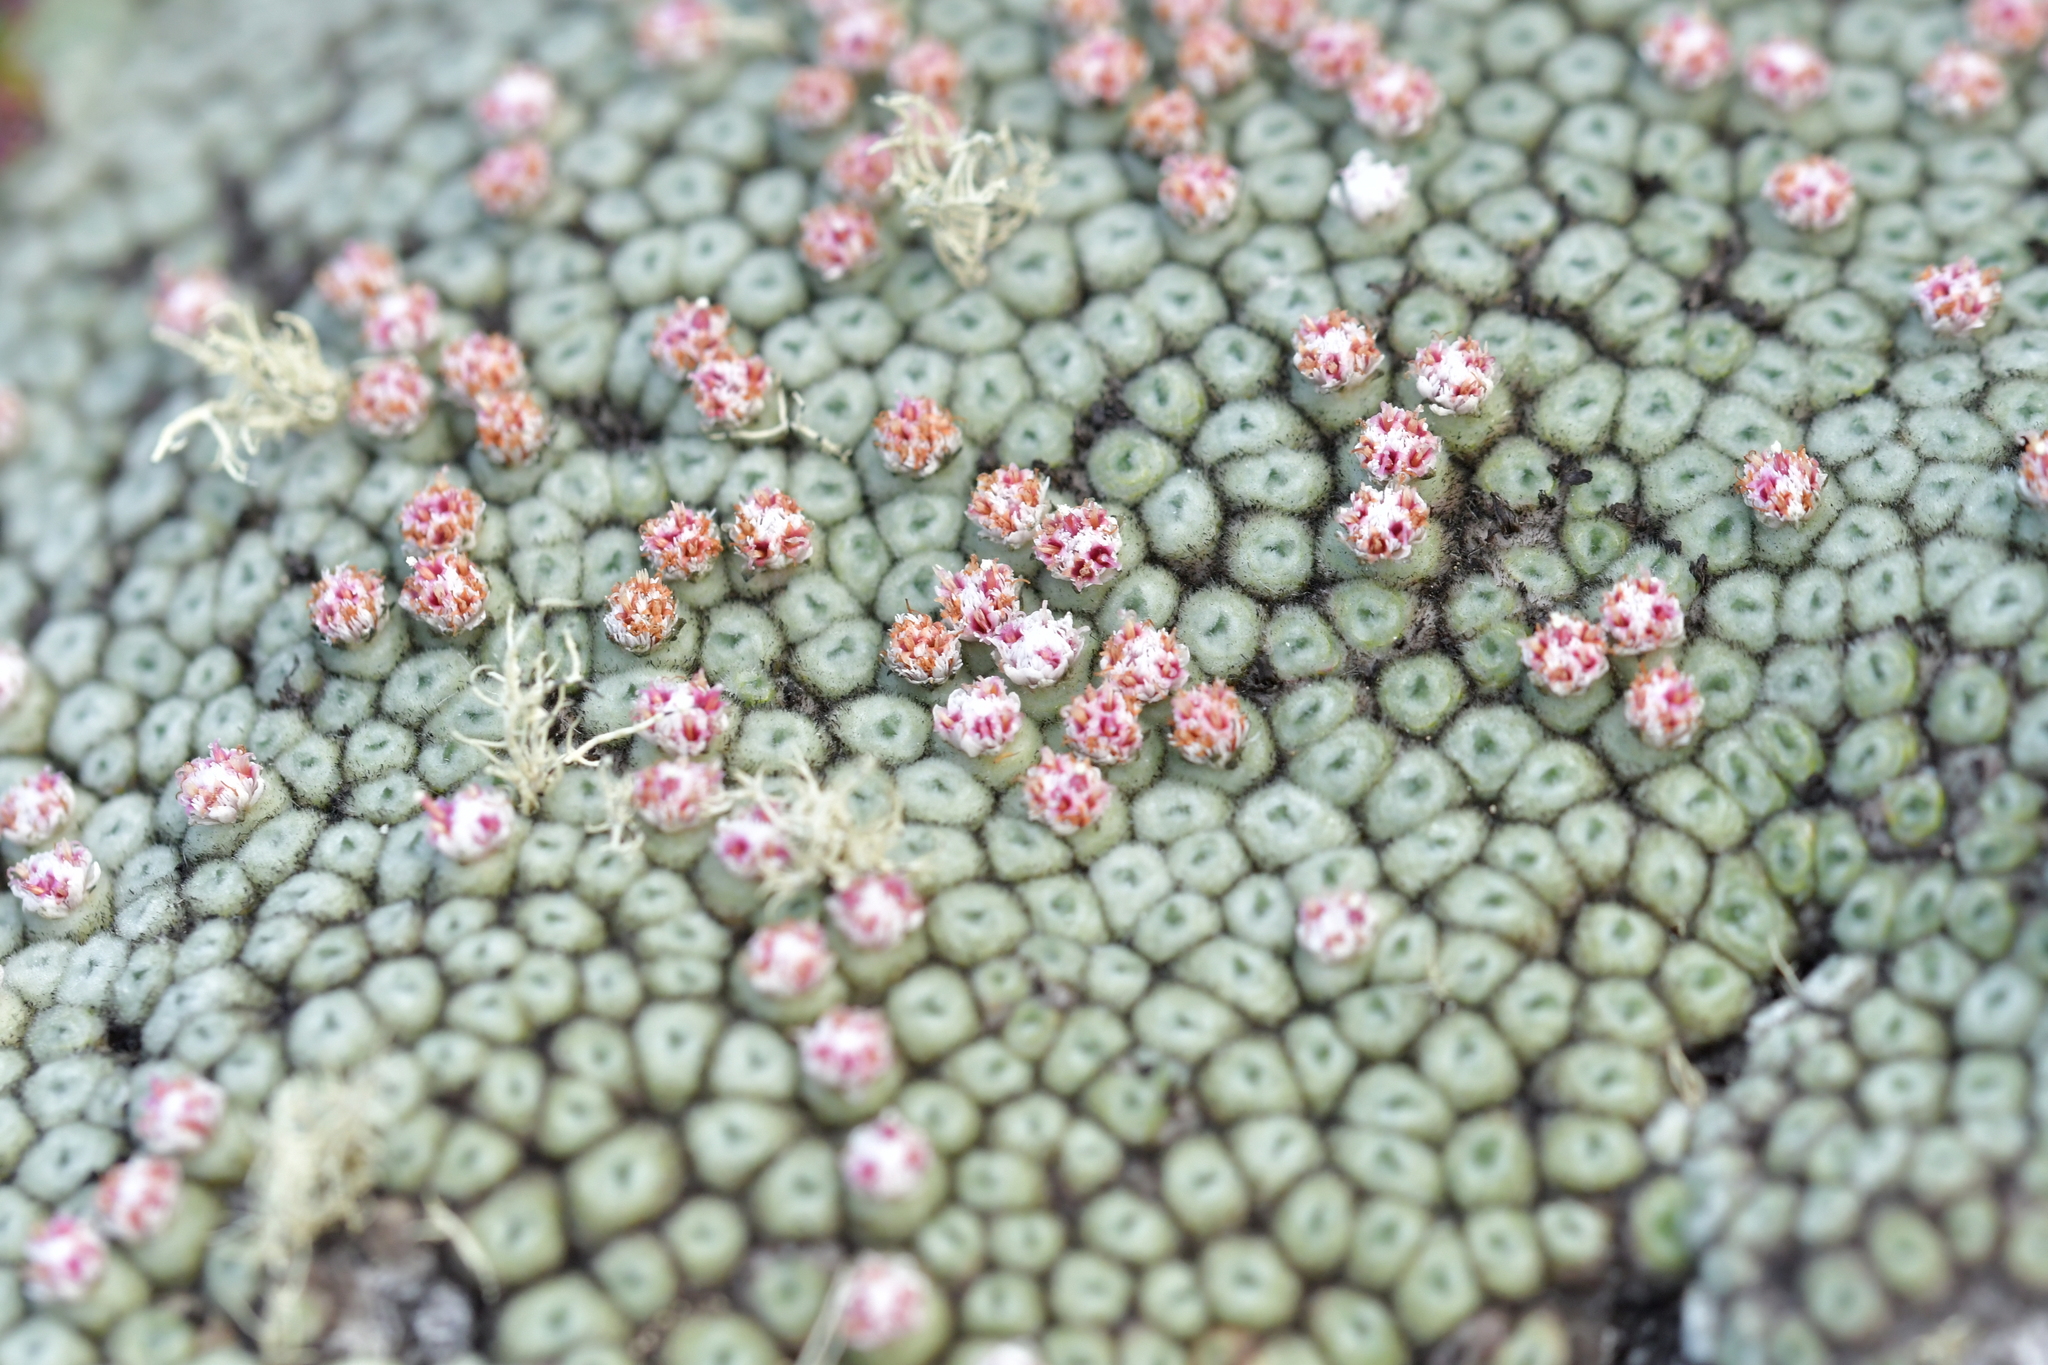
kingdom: Plantae
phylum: Tracheophyta
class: Magnoliopsida
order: Asterales
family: Asteraceae
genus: Raoulia
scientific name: Raoulia rubra
